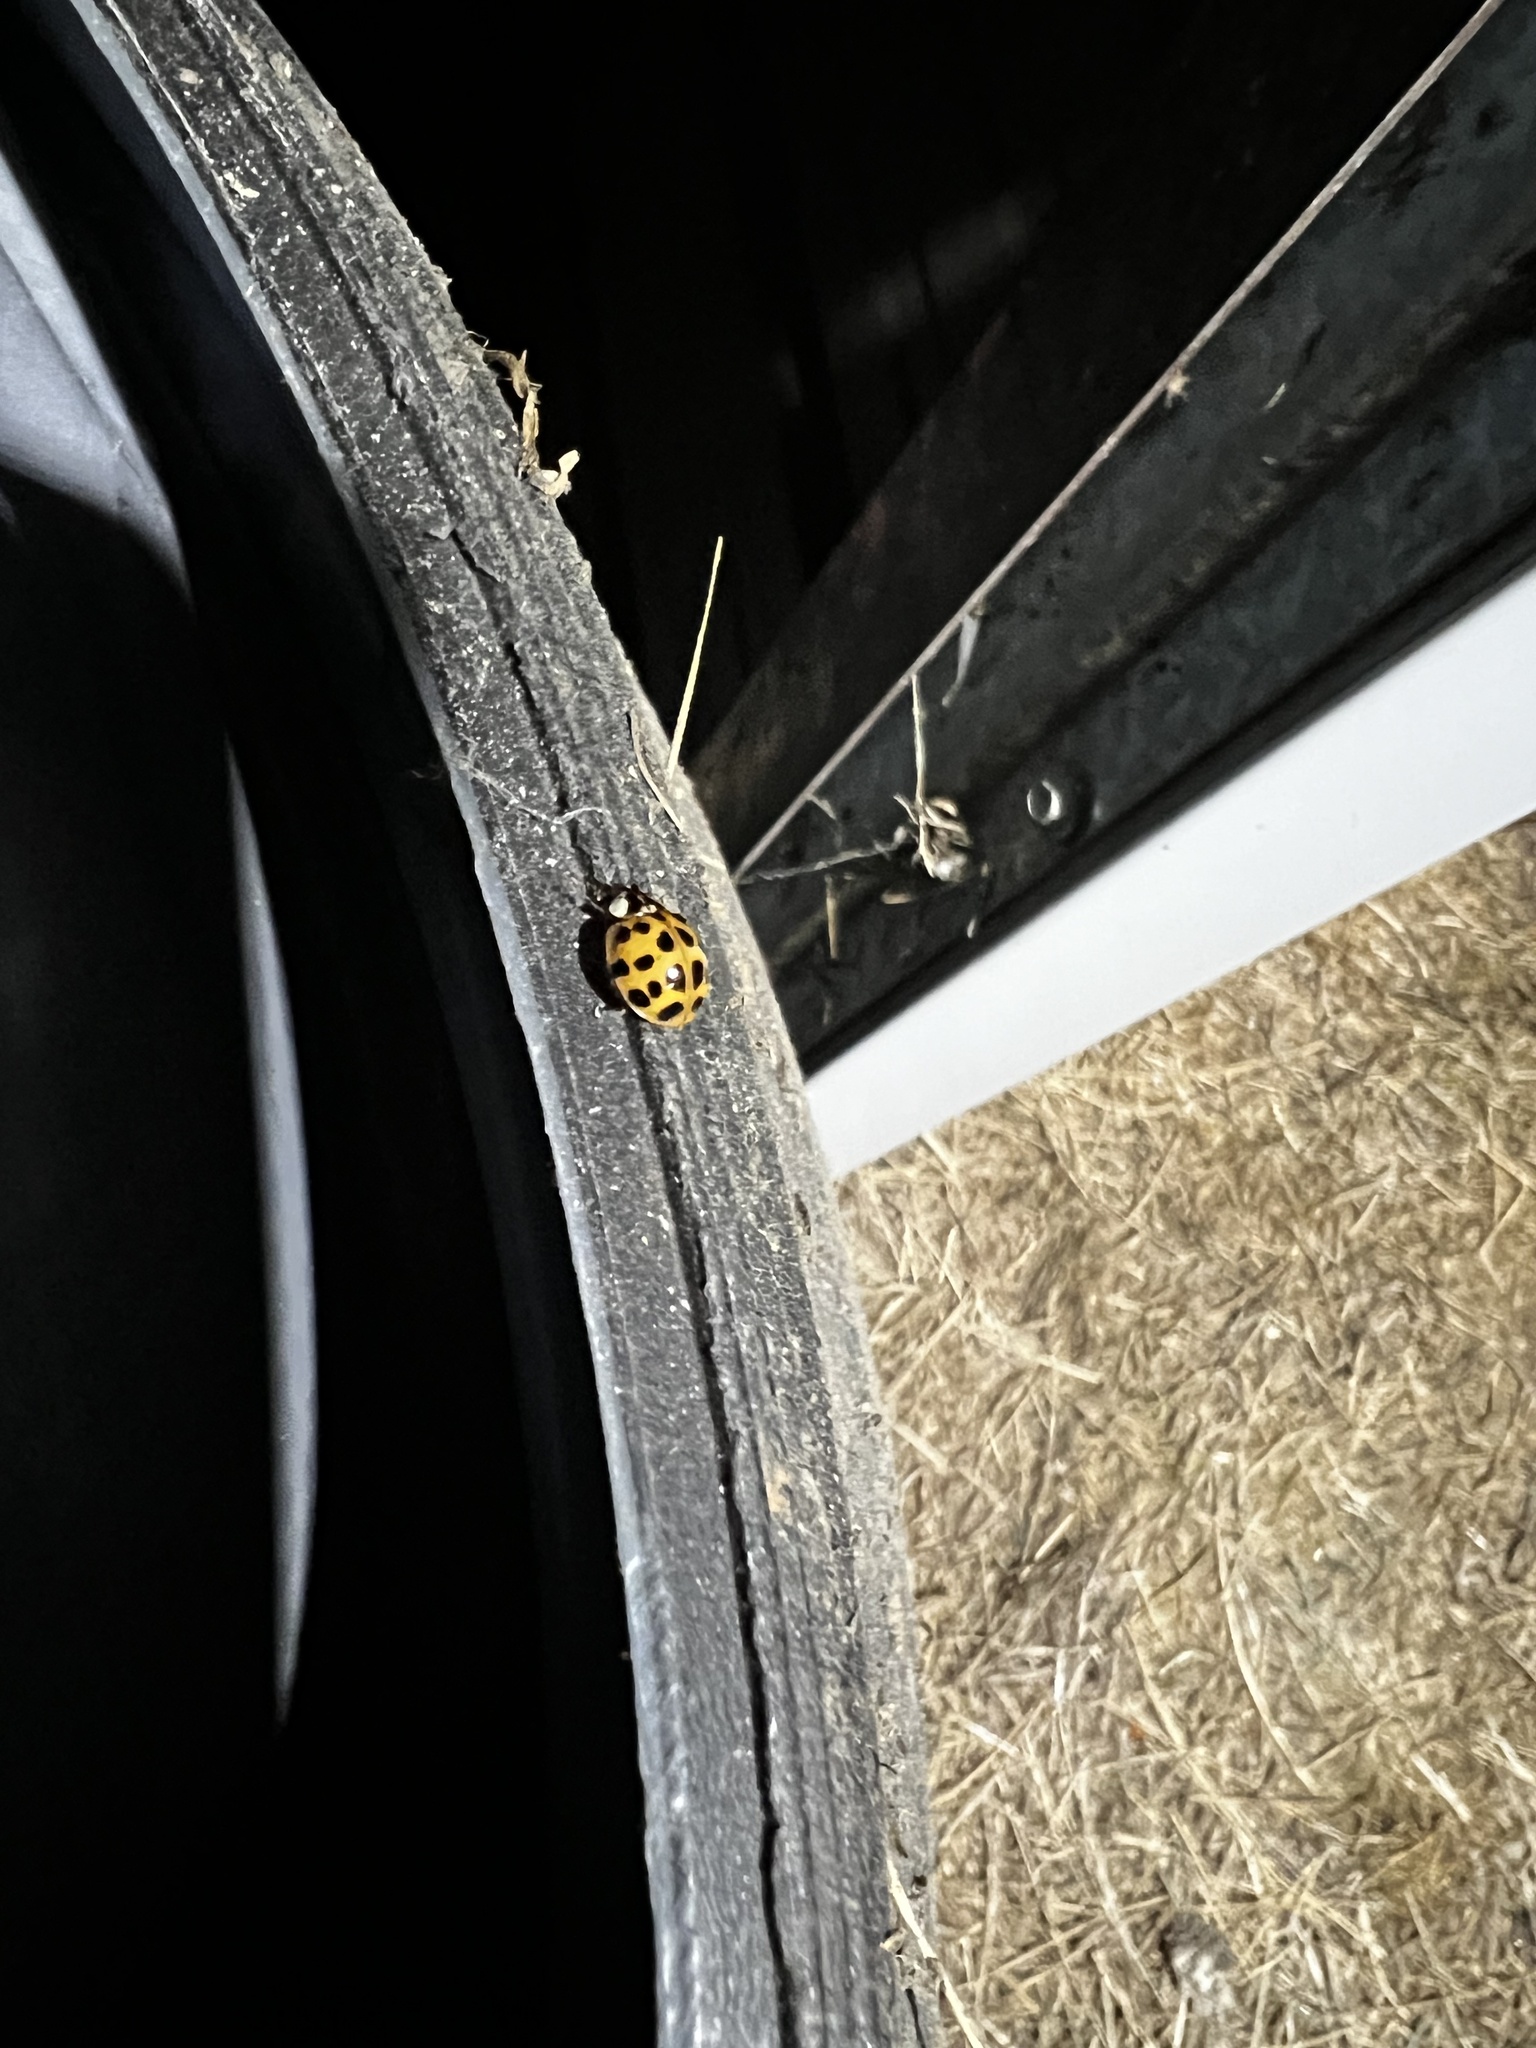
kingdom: Animalia
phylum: Arthropoda
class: Insecta
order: Coleoptera
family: Coccinellidae
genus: Harmonia
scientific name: Harmonia axyridis
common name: Harlequin ladybird
